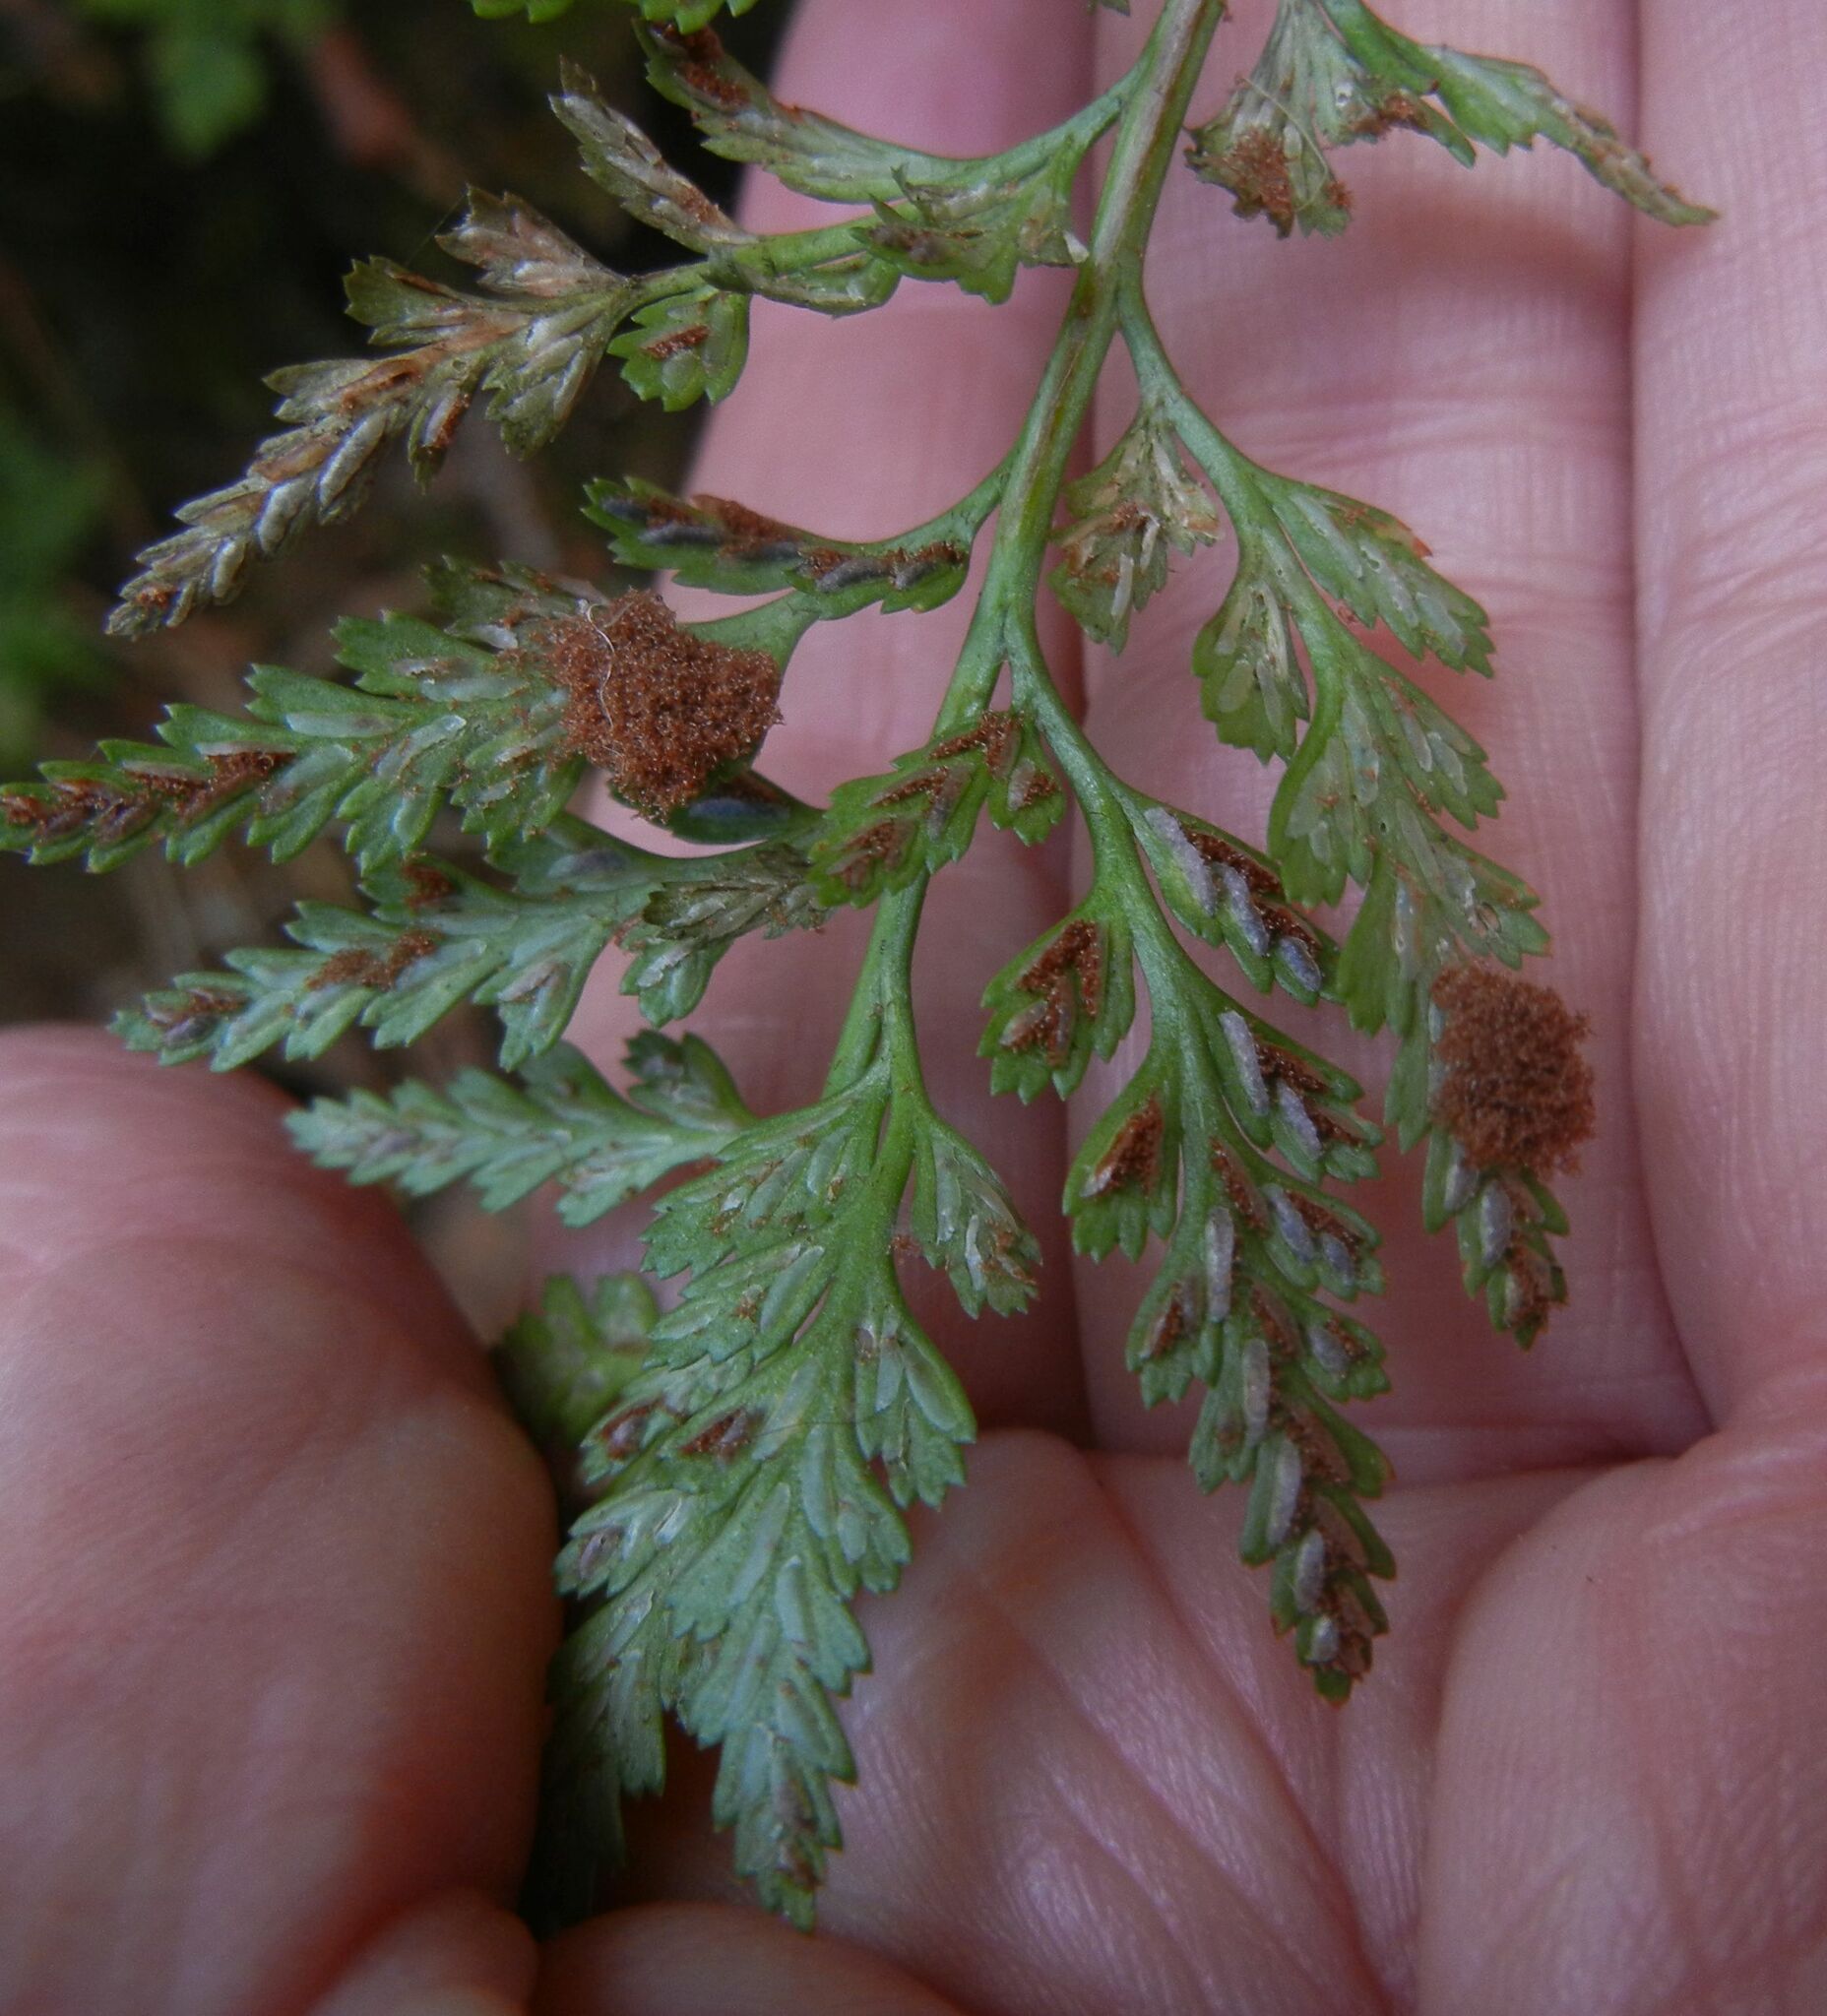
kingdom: Plantae
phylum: Tracheophyta
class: Polypodiopsida
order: Polypodiales
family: Aspleniaceae
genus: Asplenium
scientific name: Asplenium adiantum-nigrum
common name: Black spleenwort
